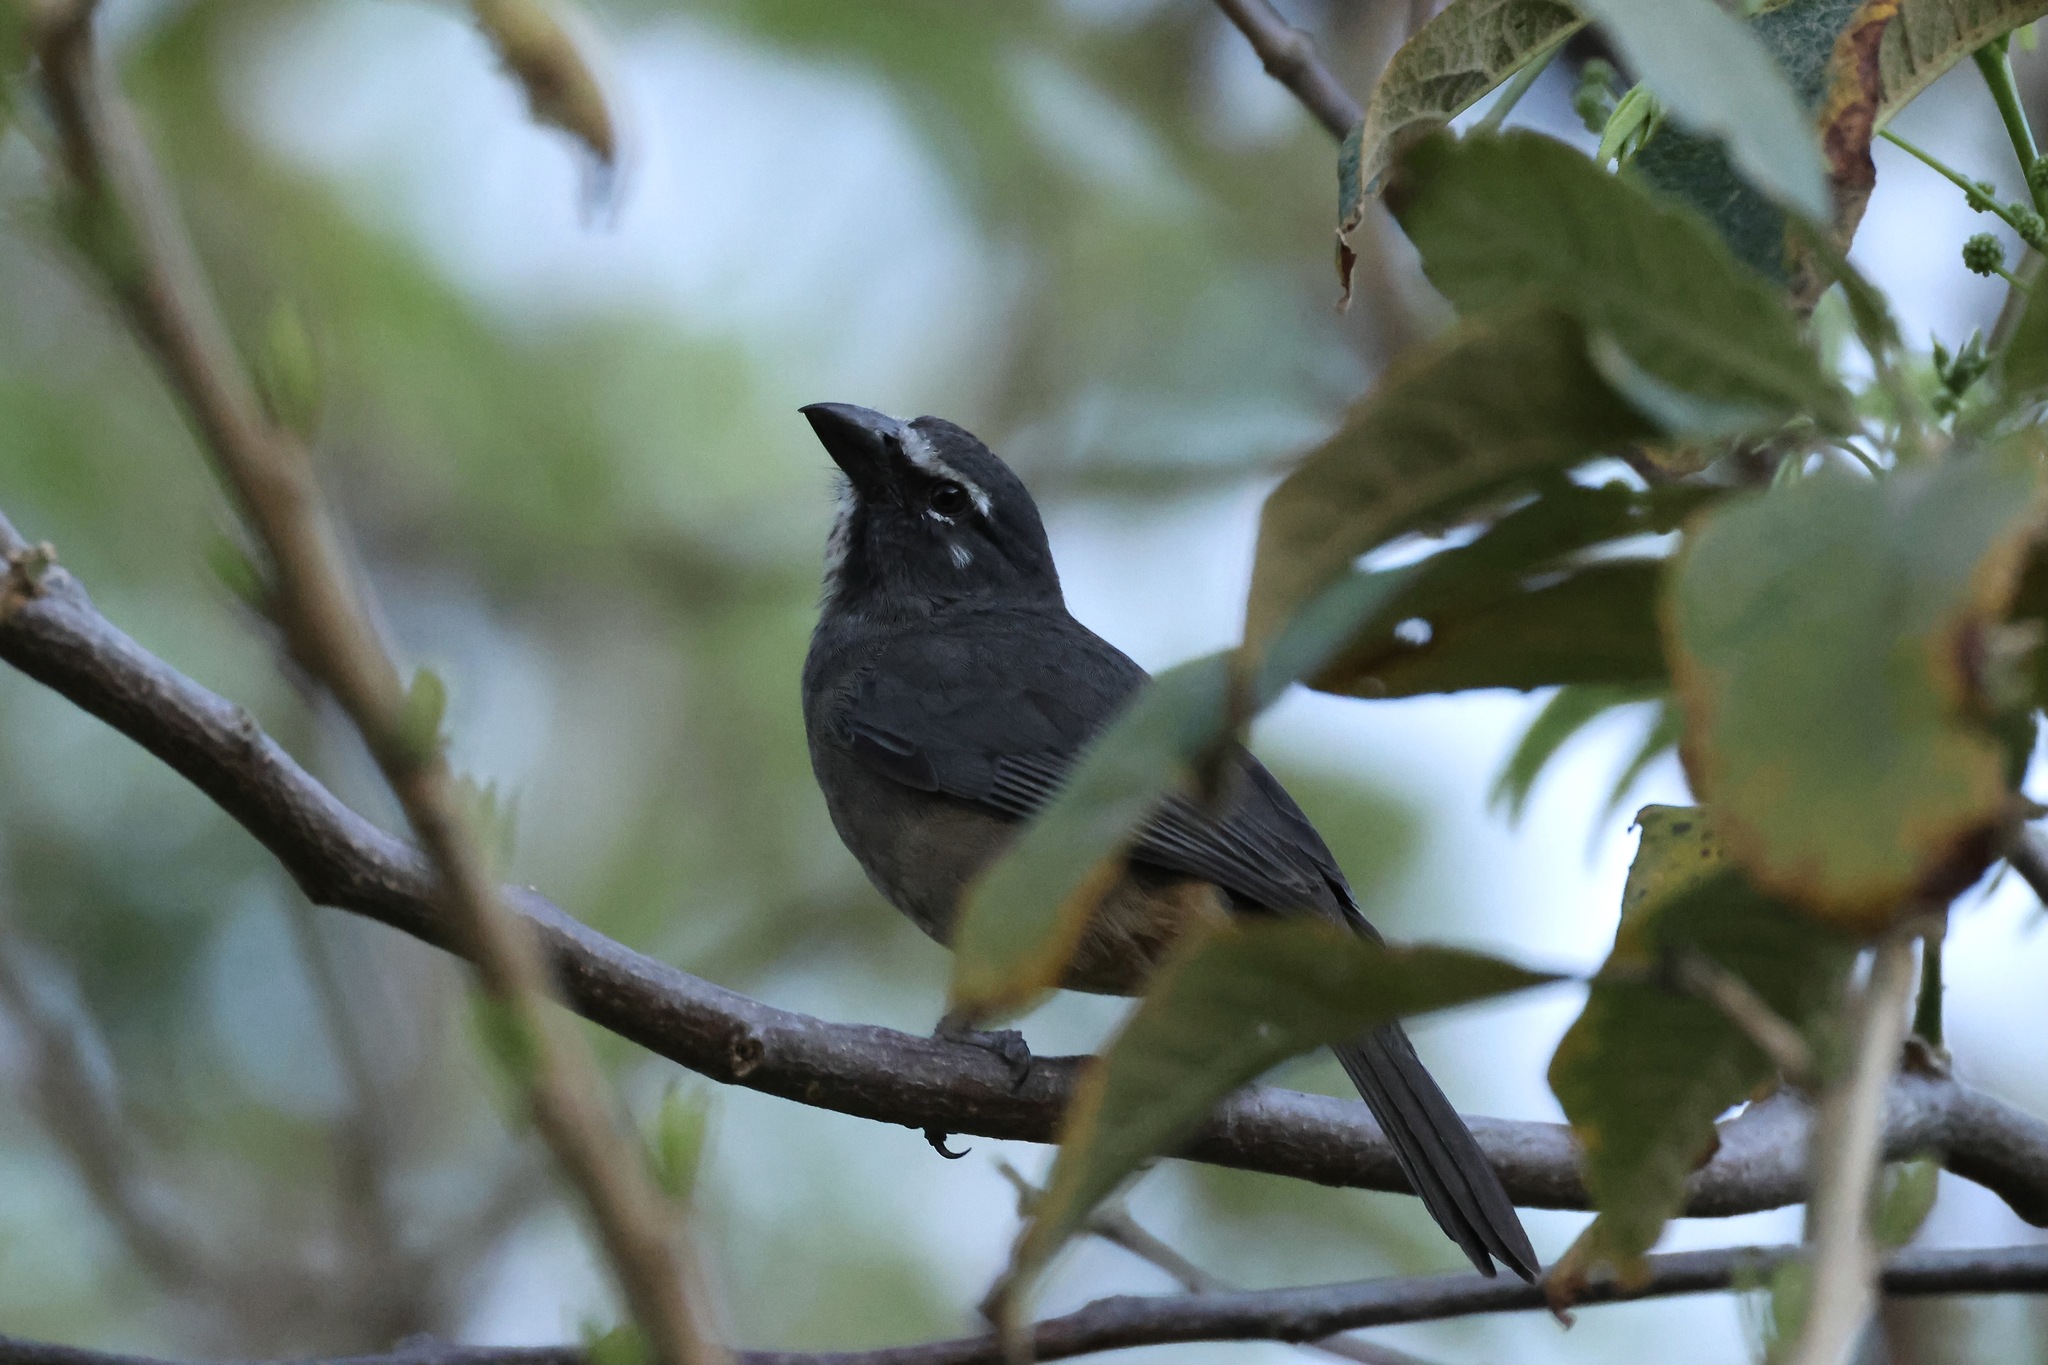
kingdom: Animalia
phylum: Chordata
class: Aves
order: Passeriformes
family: Thraupidae
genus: Saltator
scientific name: Saltator grandis
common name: Cinnamon-bellied saltator
